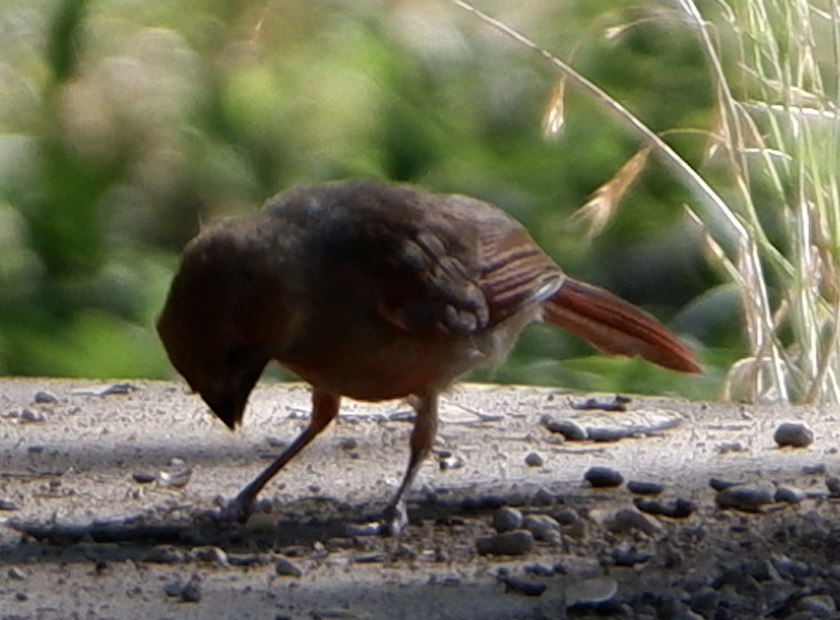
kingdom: Animalia
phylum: Chordata
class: Aves
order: Passeriformes
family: Cardinalidae
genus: Cardinalis
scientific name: Cardinalis cardinalis
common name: Northern cardinal
